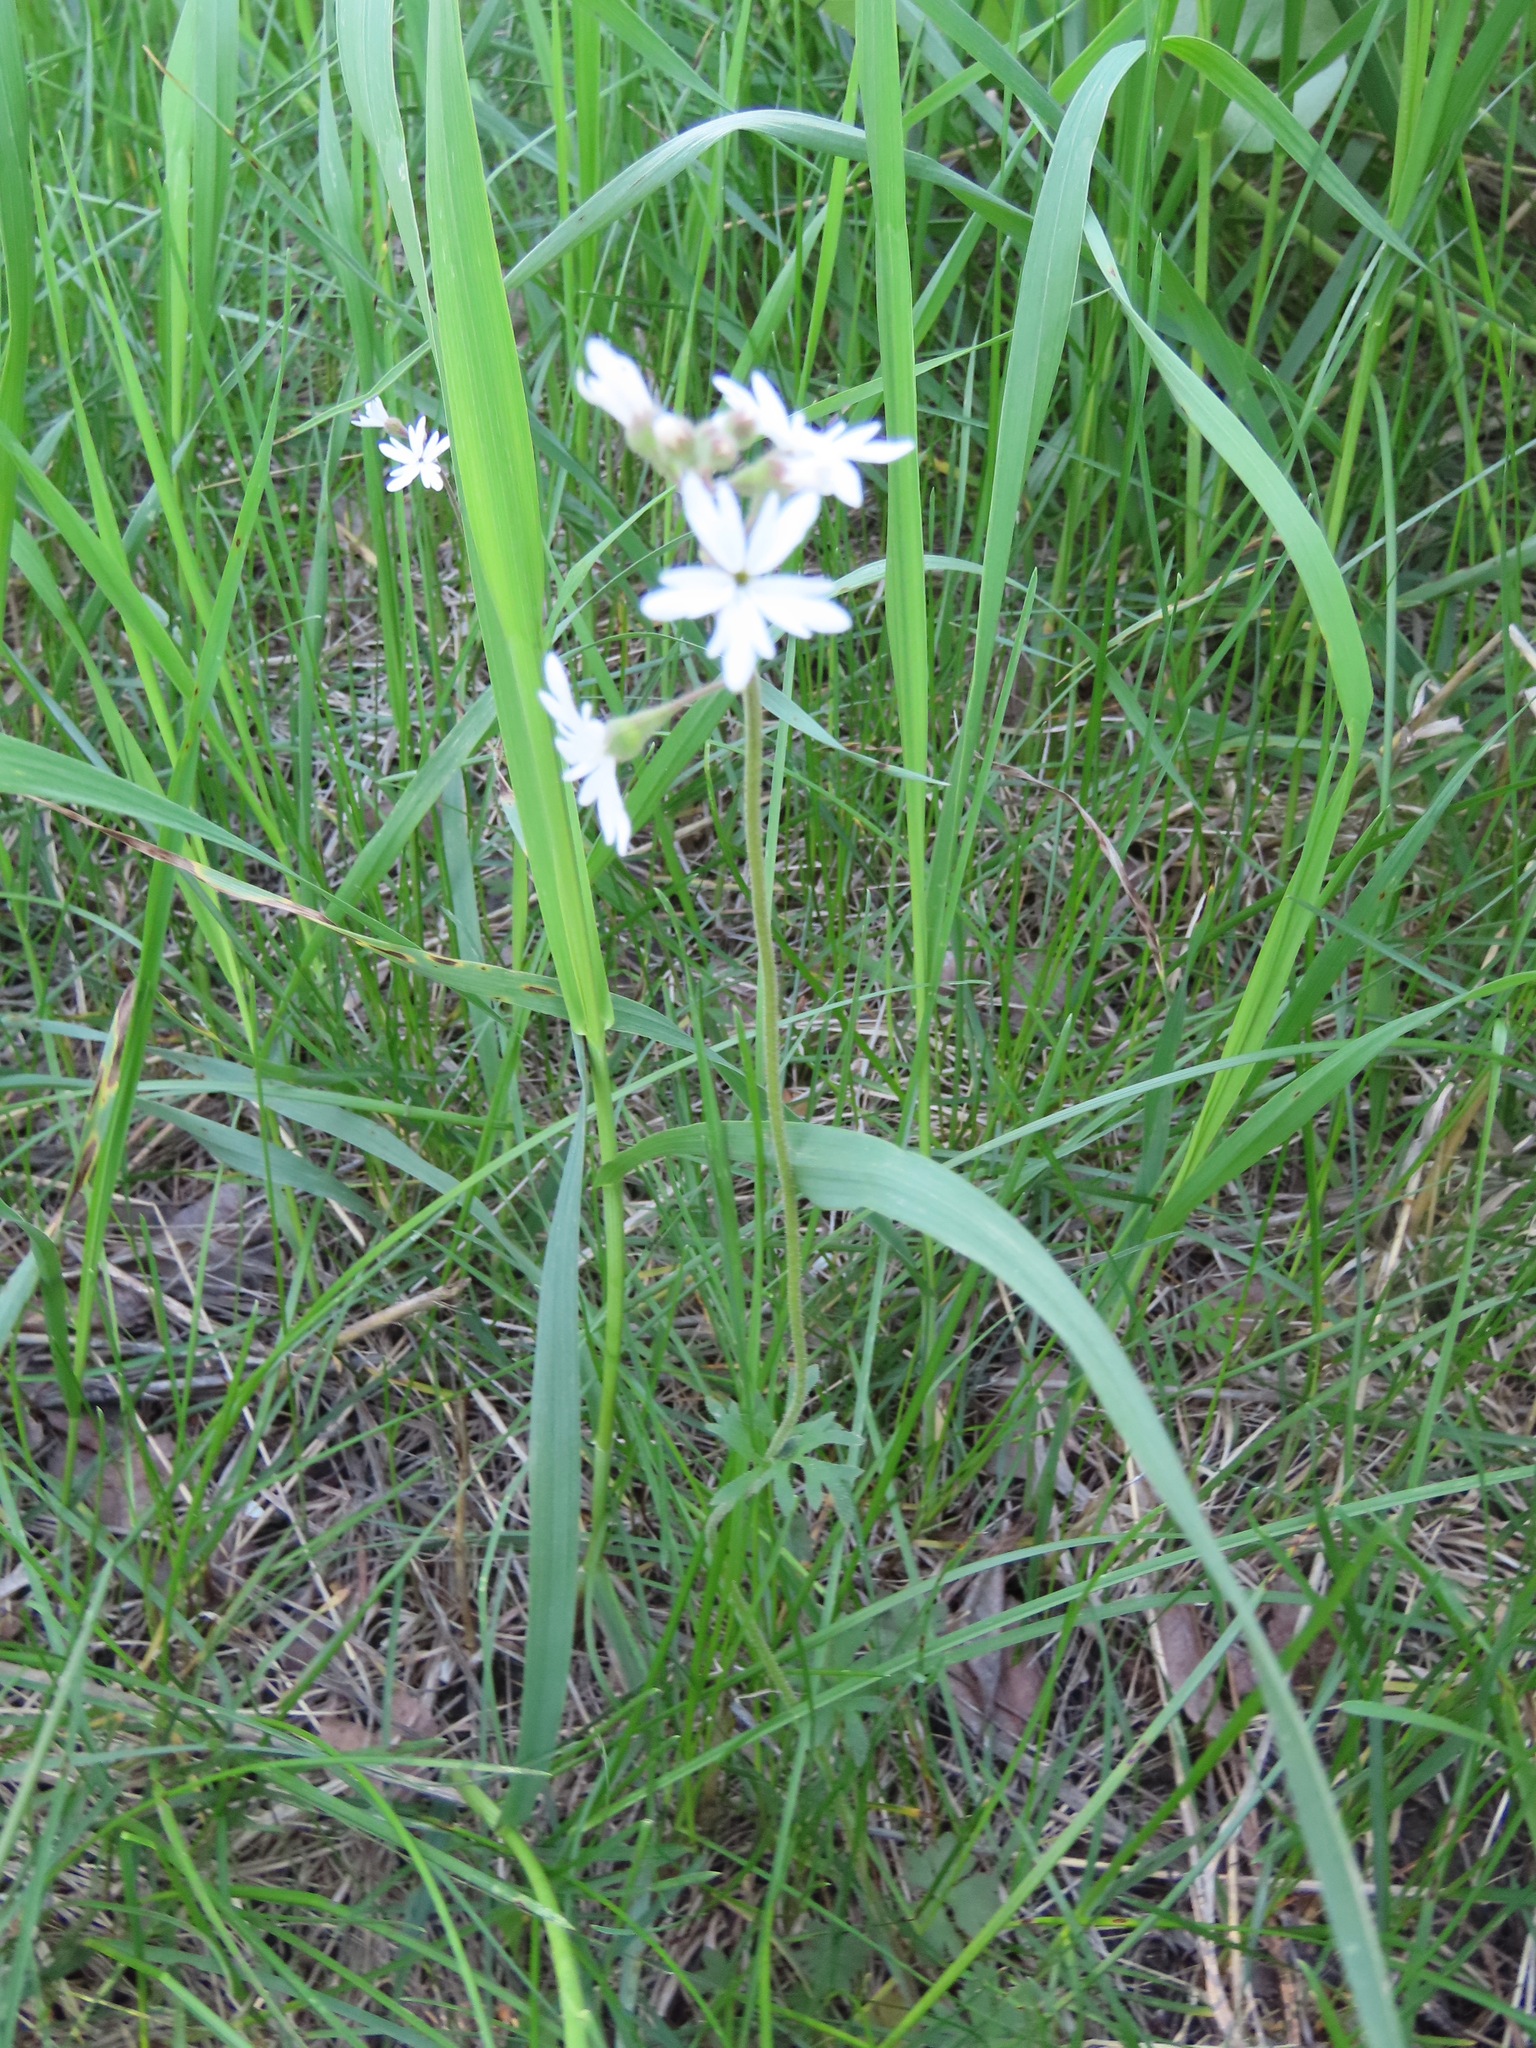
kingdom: Plantae
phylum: Tracheophyta
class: Magnoliopsida
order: Saxifragales
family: Saxifragaceae
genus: Lithophragma
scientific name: Lithophragma parviflorum
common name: Small-flowered fringe-cup
